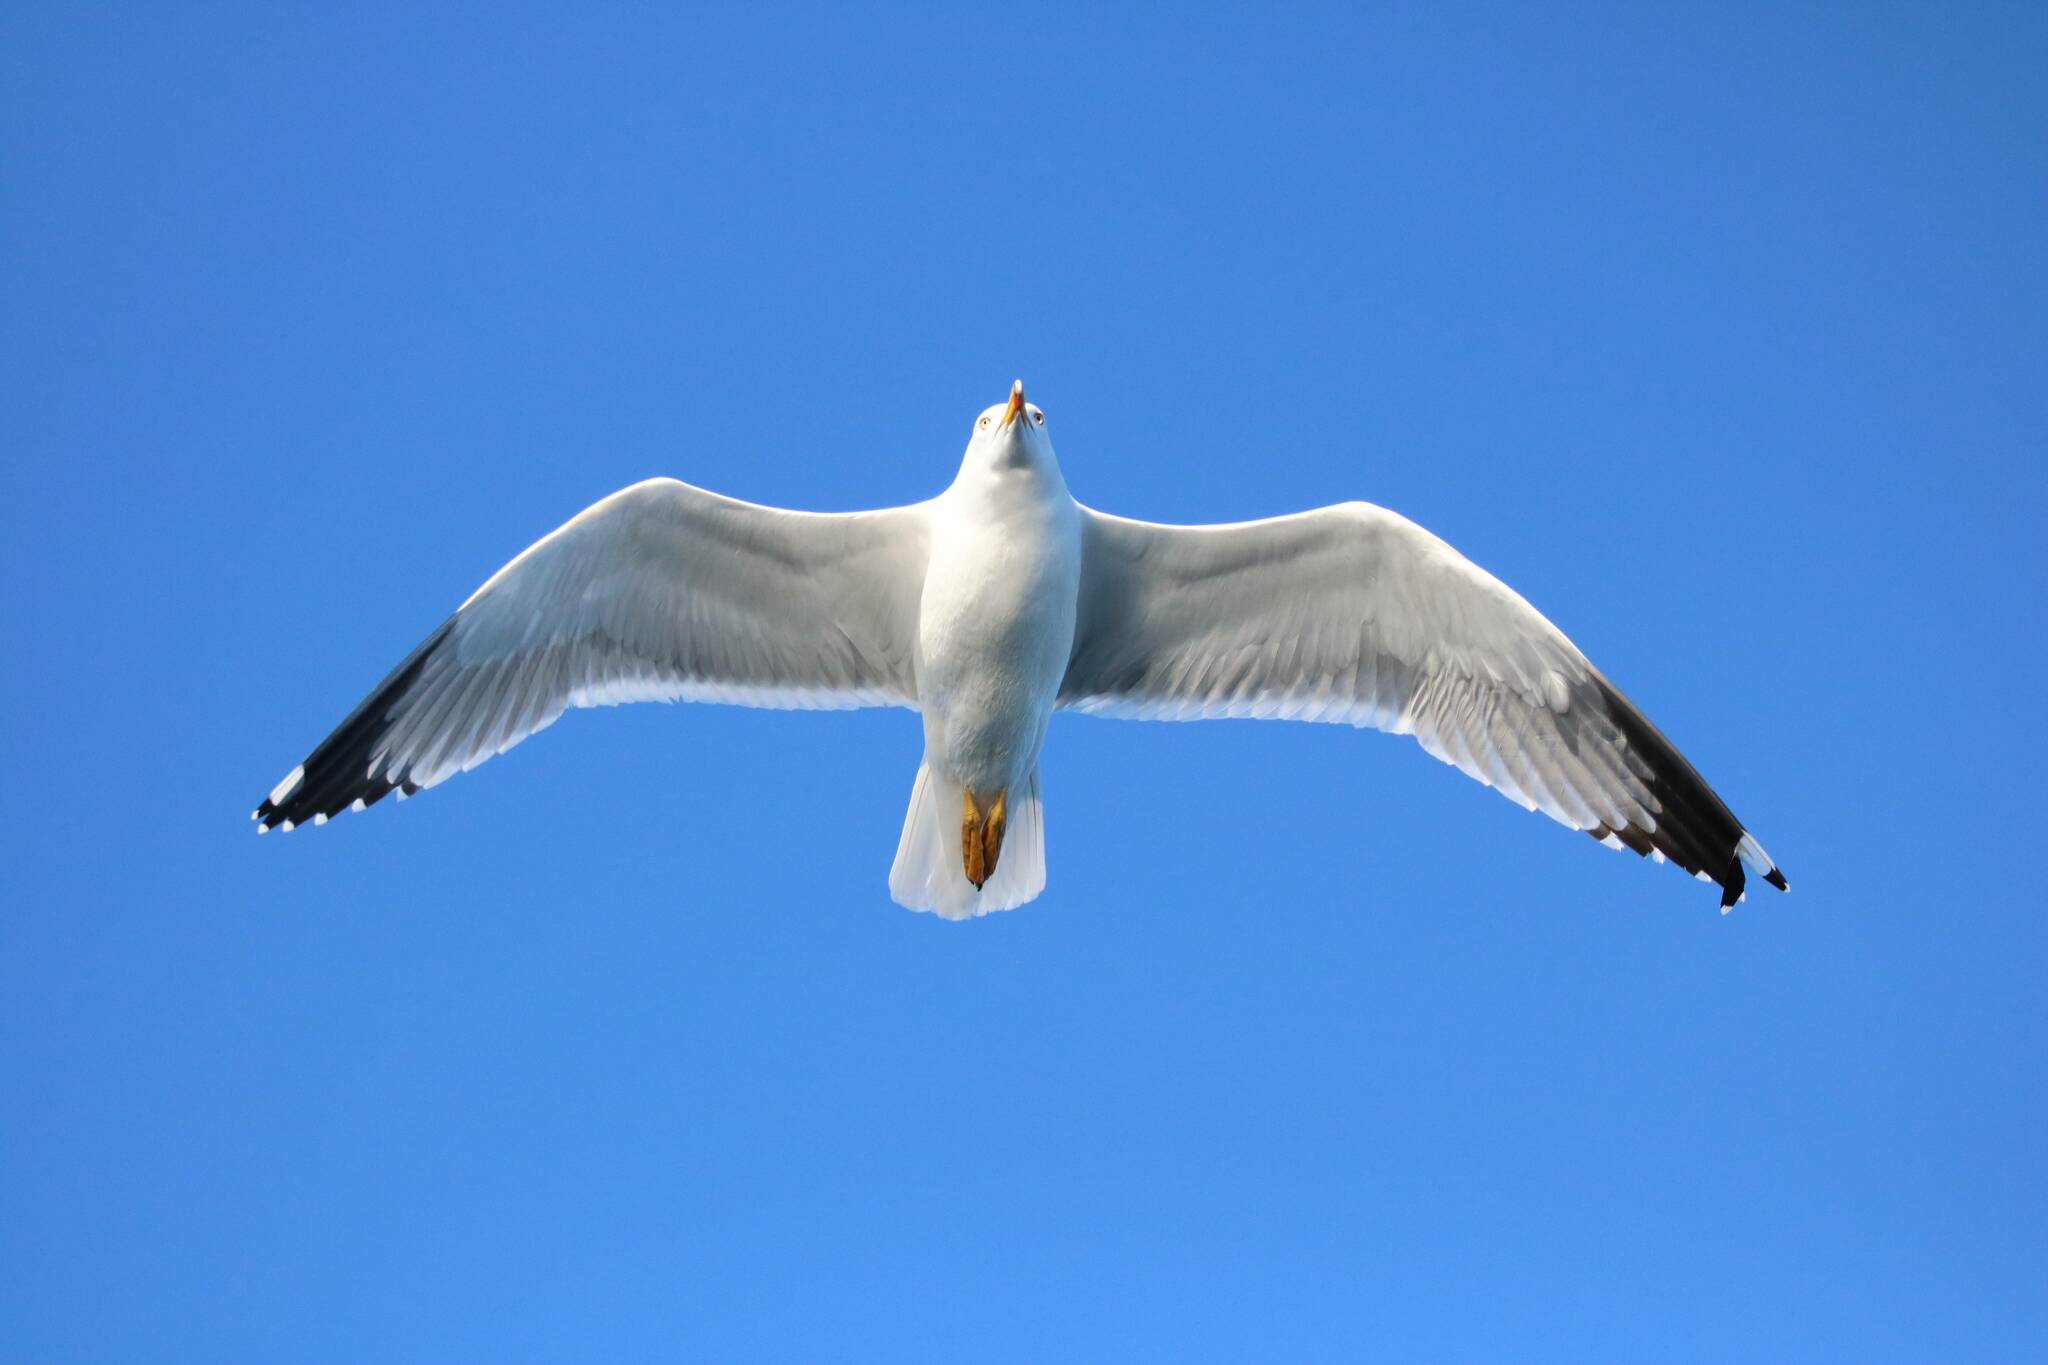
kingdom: Animalia
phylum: Chordata
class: Aves
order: Charadriiformes
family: Laridae
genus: Larus
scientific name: Larus michahellis
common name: Yellow-legged gull
